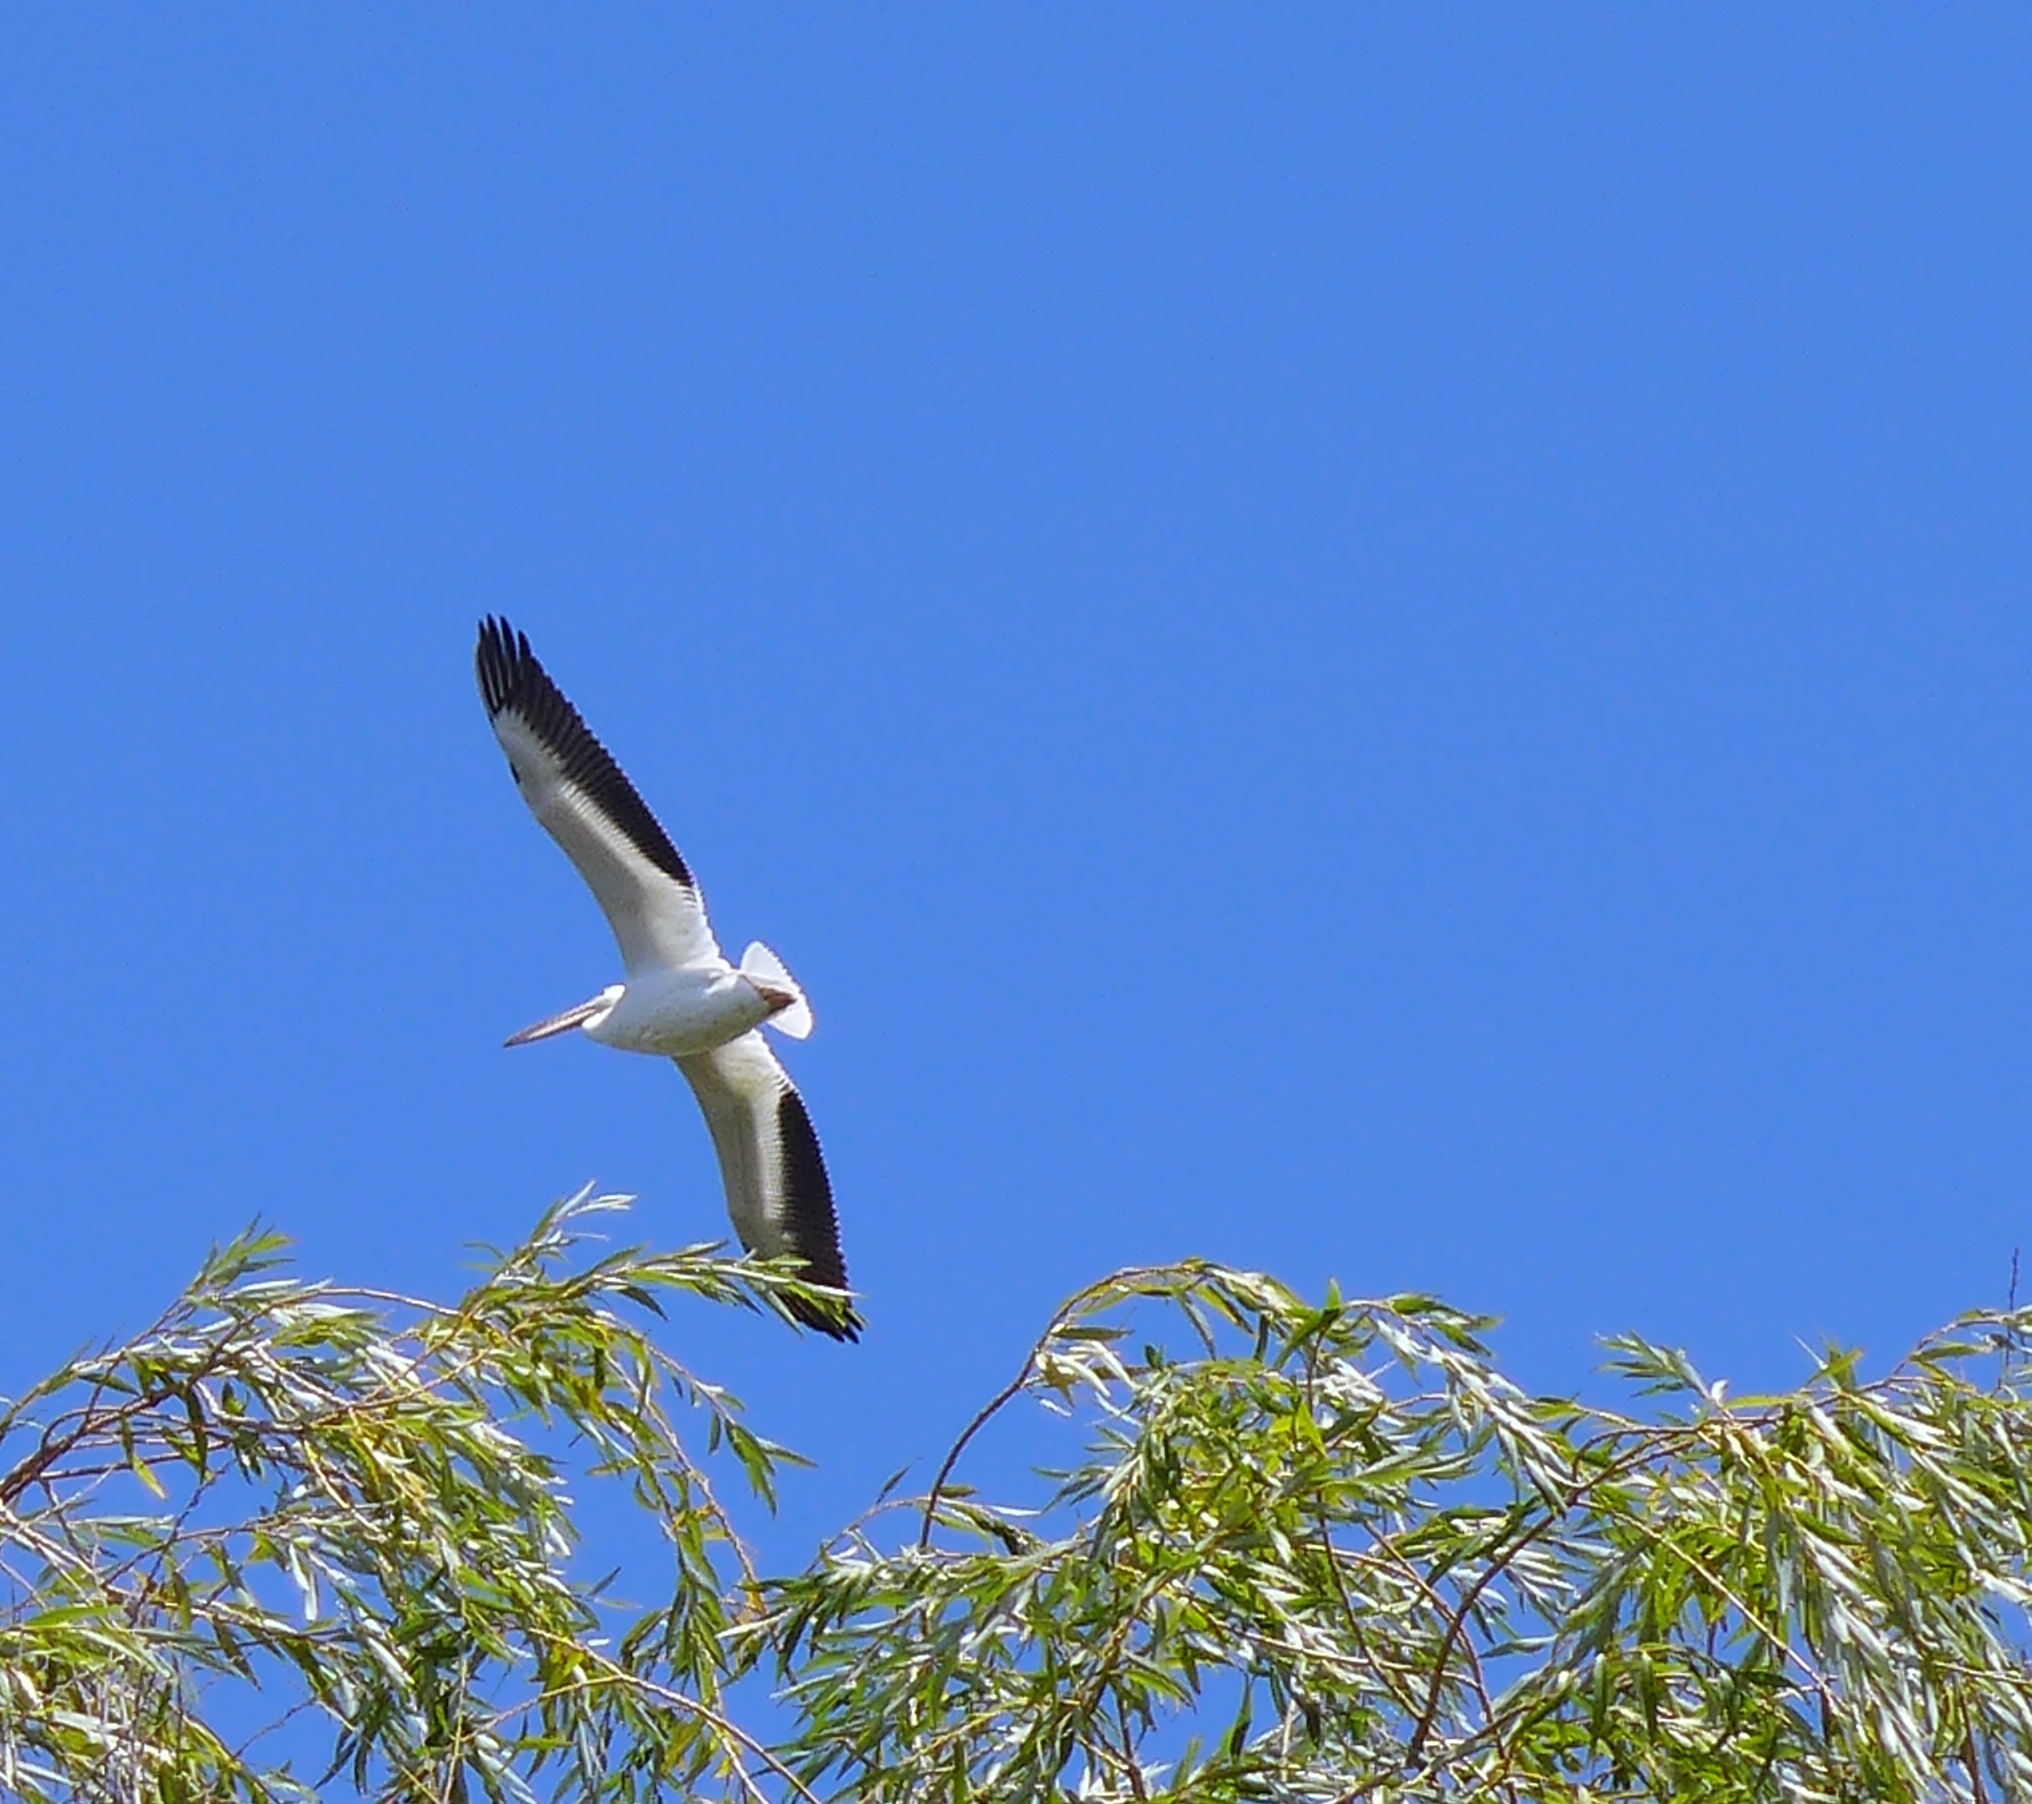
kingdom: Animalia
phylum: Chordata
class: Aves
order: Pelecaniformes
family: Pelecanidae
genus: Pelecanus
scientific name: Pelecanus erythrorhynchos
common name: American white pelican
